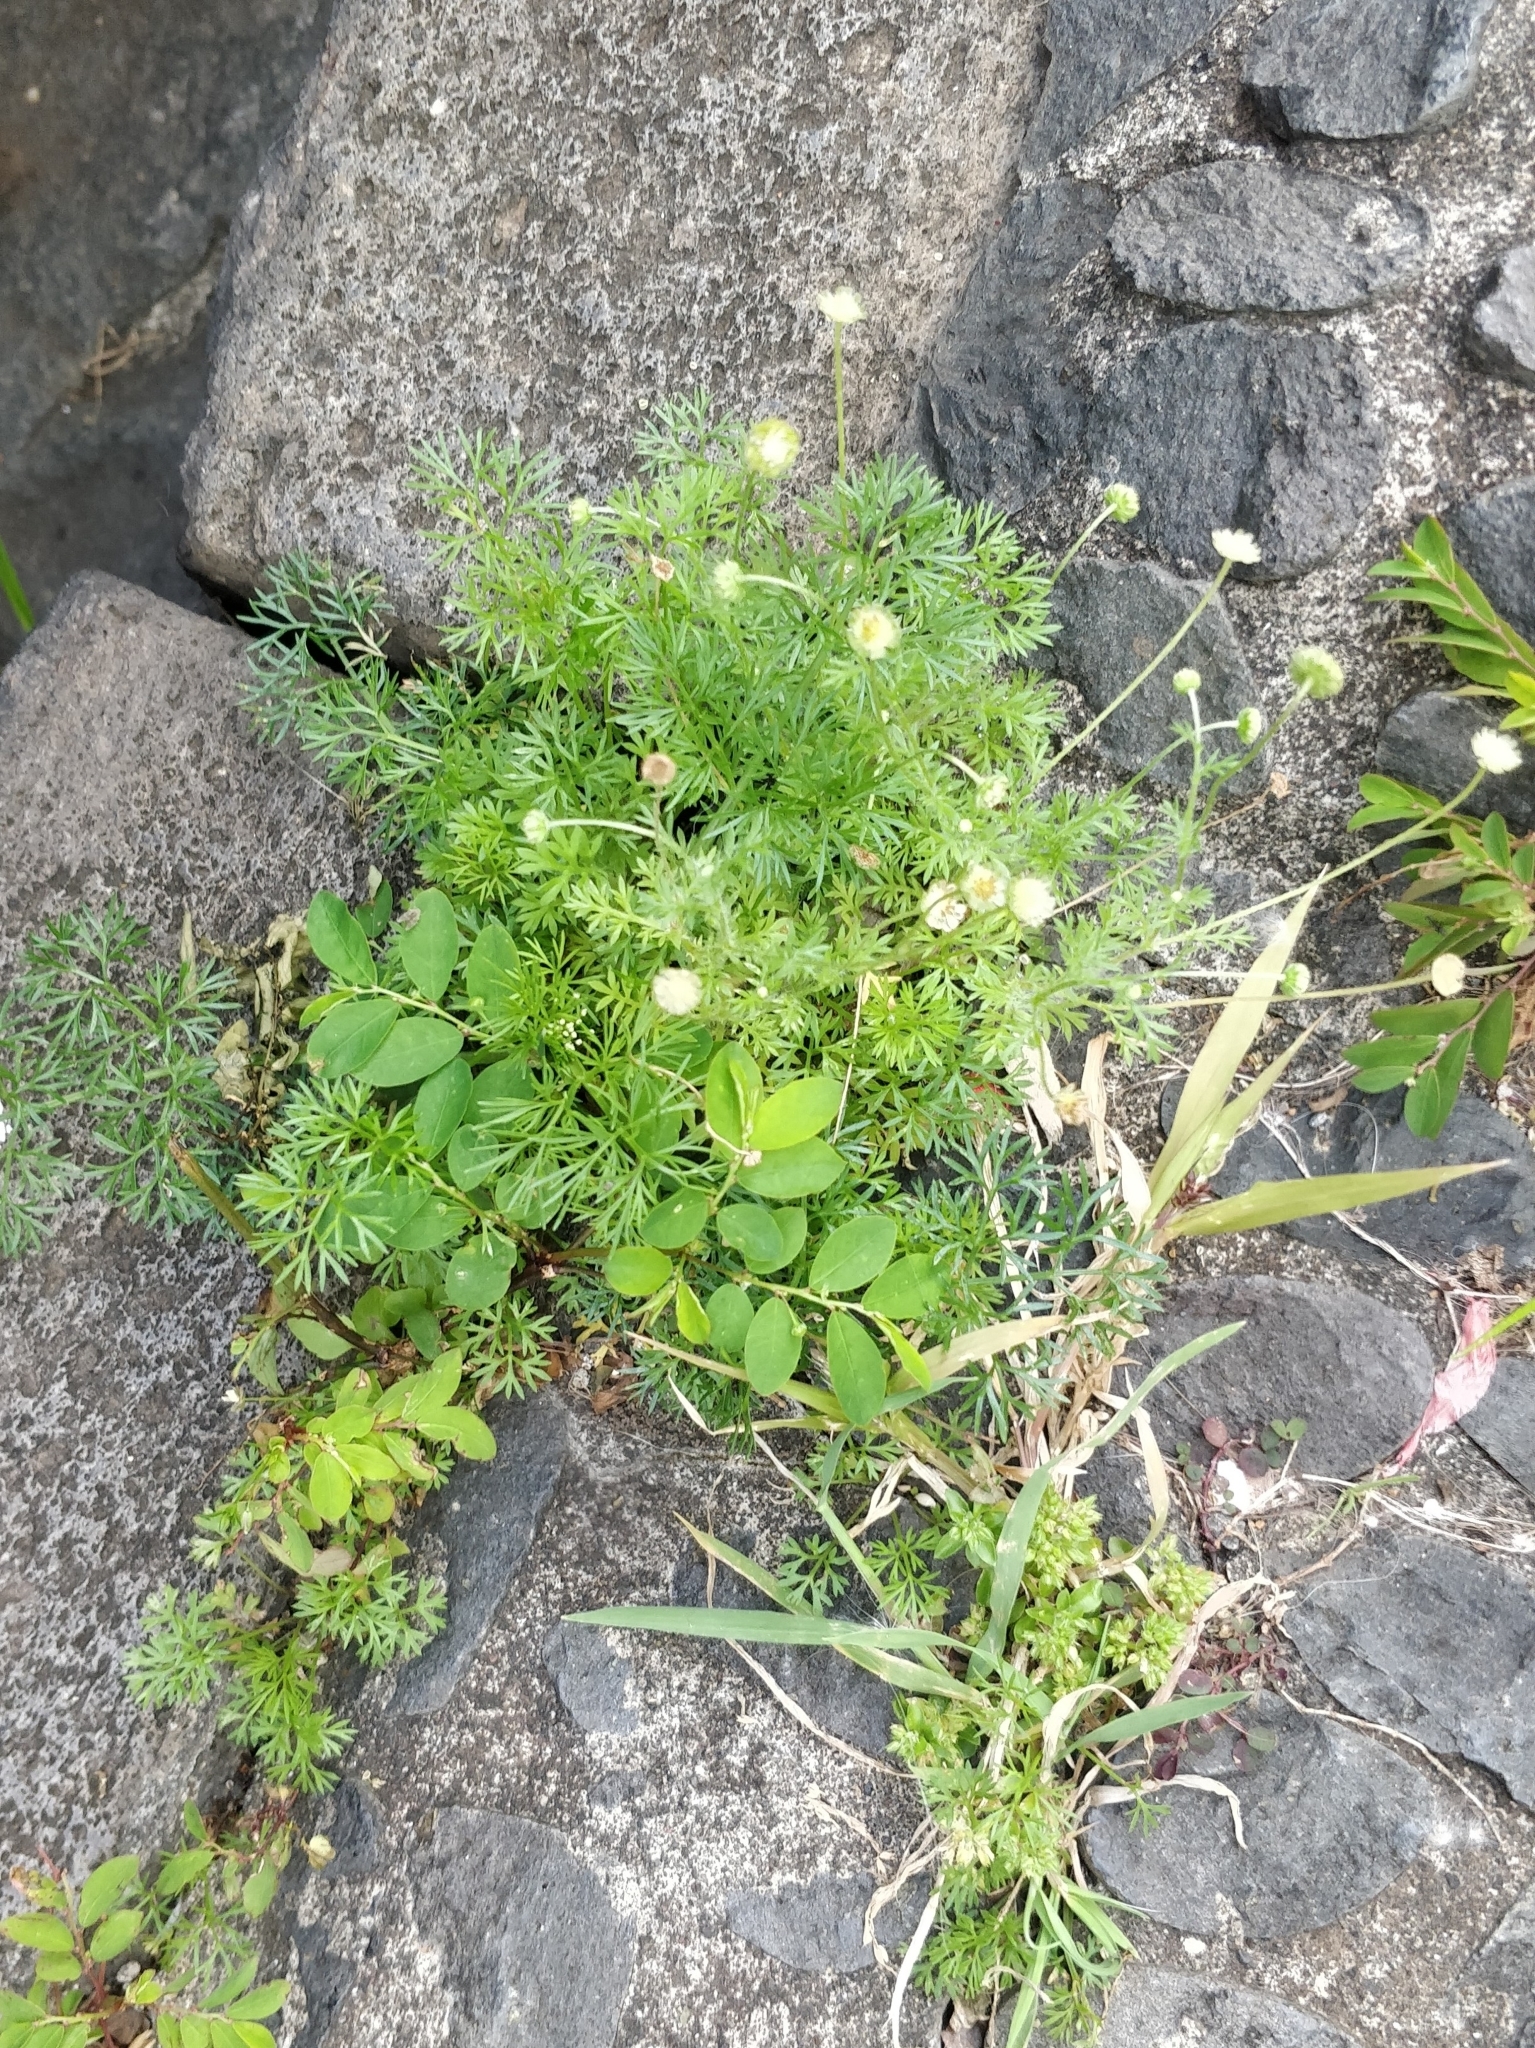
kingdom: Plantae
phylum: Tracheophyta
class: Magnoliopsida
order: Asterales
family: Asteraceae
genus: Cotula
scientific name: Cotula australis
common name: Australian waterbuttons
